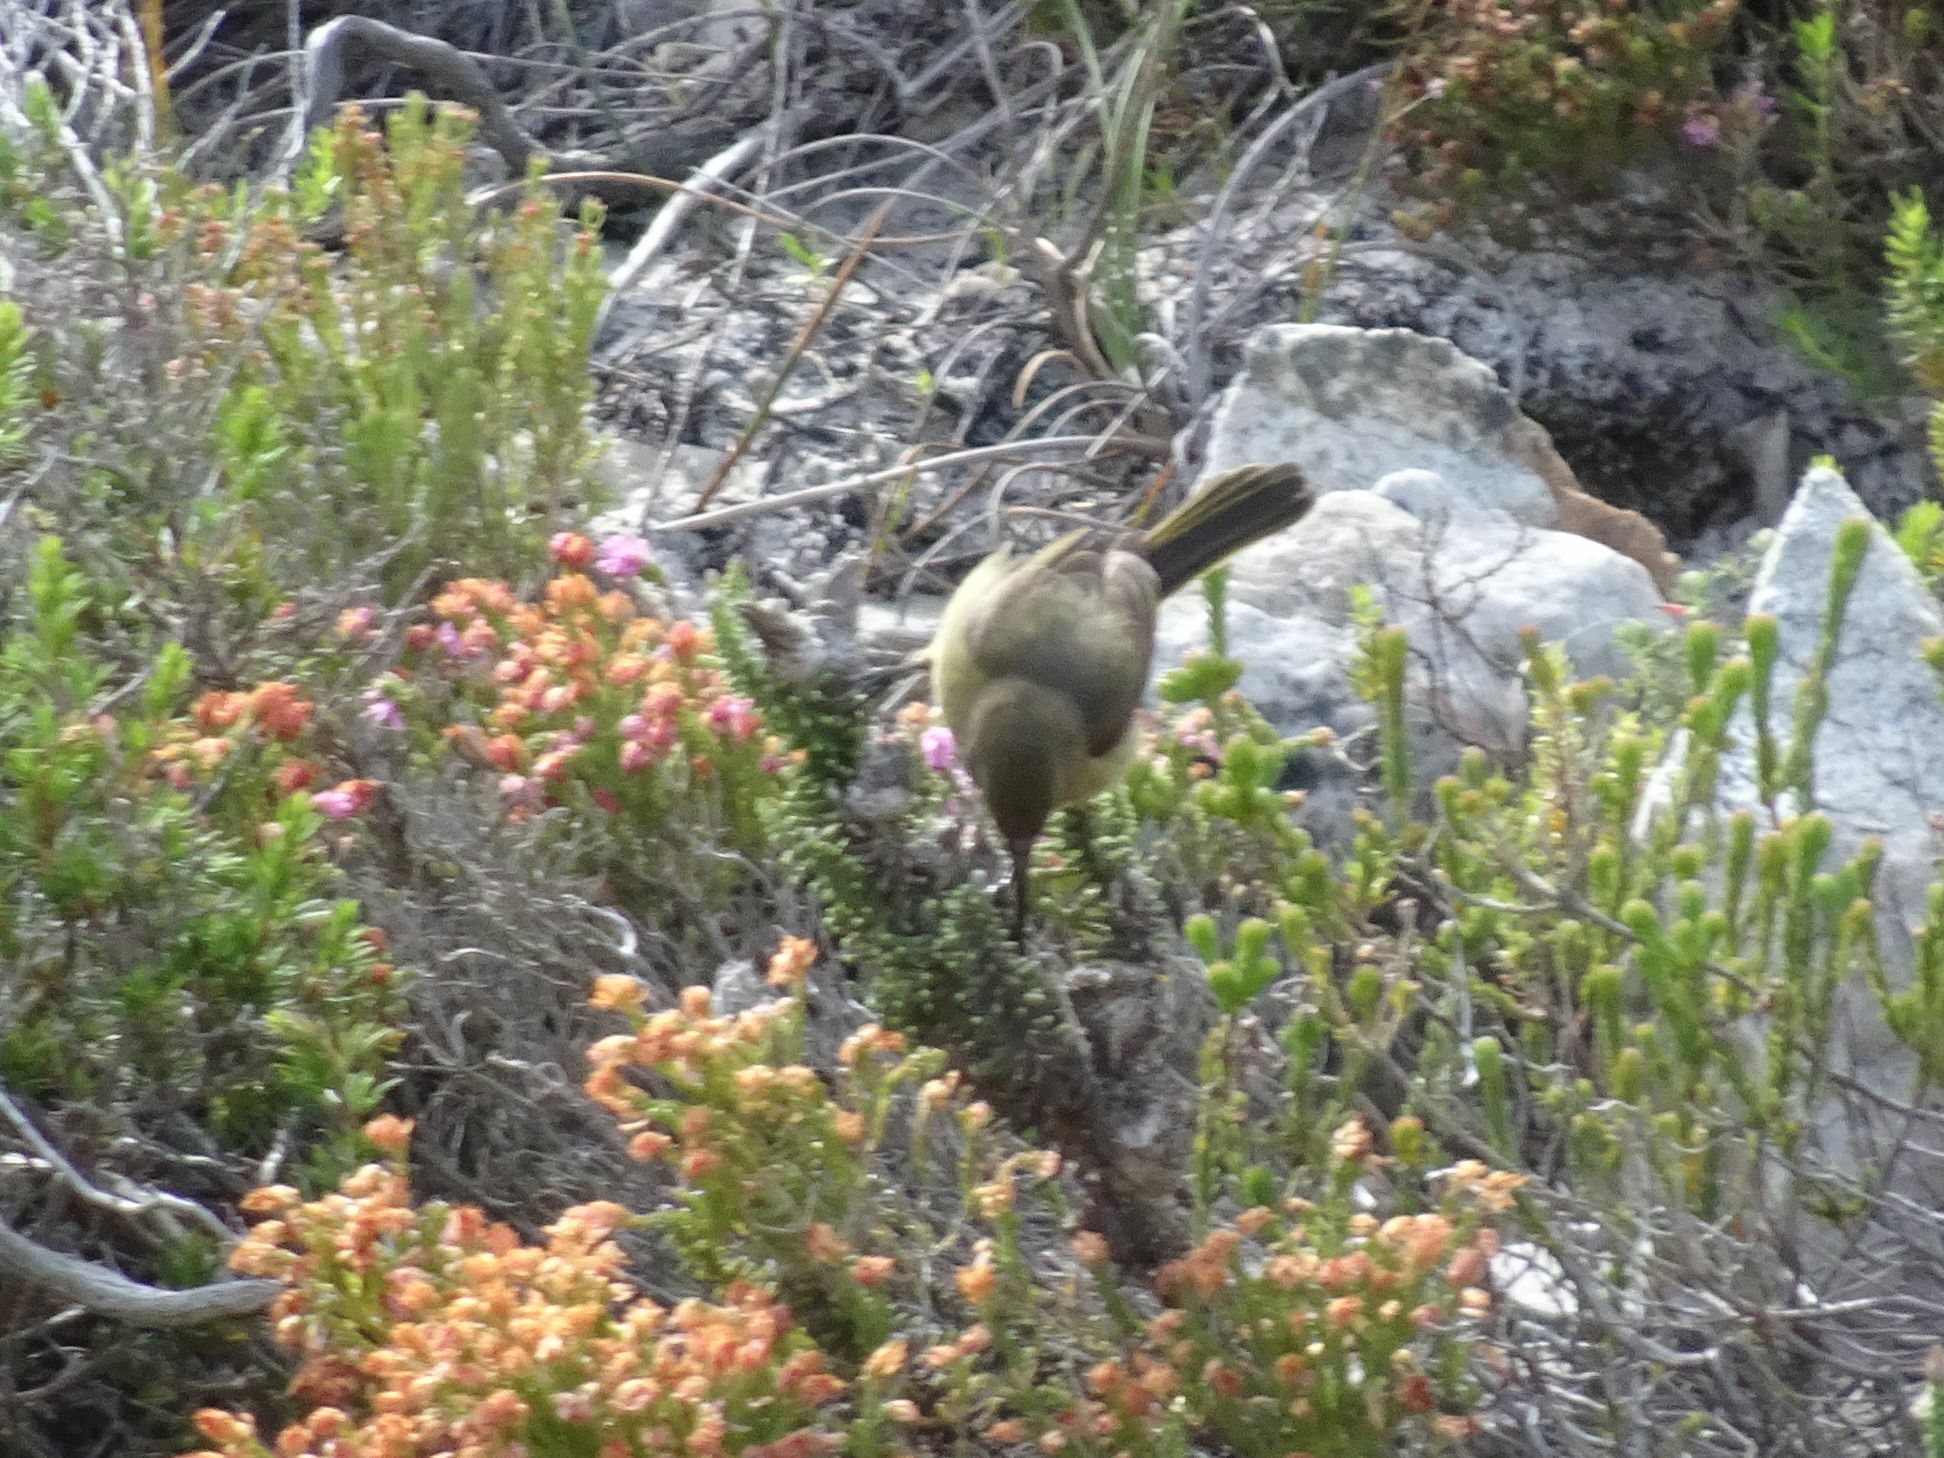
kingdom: Animalia
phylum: Chordata
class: Aves
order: Passeriformes
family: Nectariniidae
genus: Anthobaphes
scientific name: Anthobaphes violacea
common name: Orange-breasted sunbird
